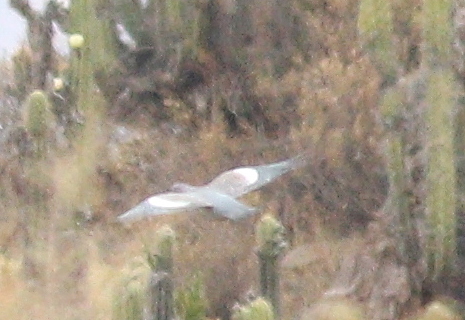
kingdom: Animalia
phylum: Chordata
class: Aves
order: Columbiformes
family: Columbidae
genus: Patagioenas
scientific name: Patagioenas maculosa
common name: Spot-winged pigeon
